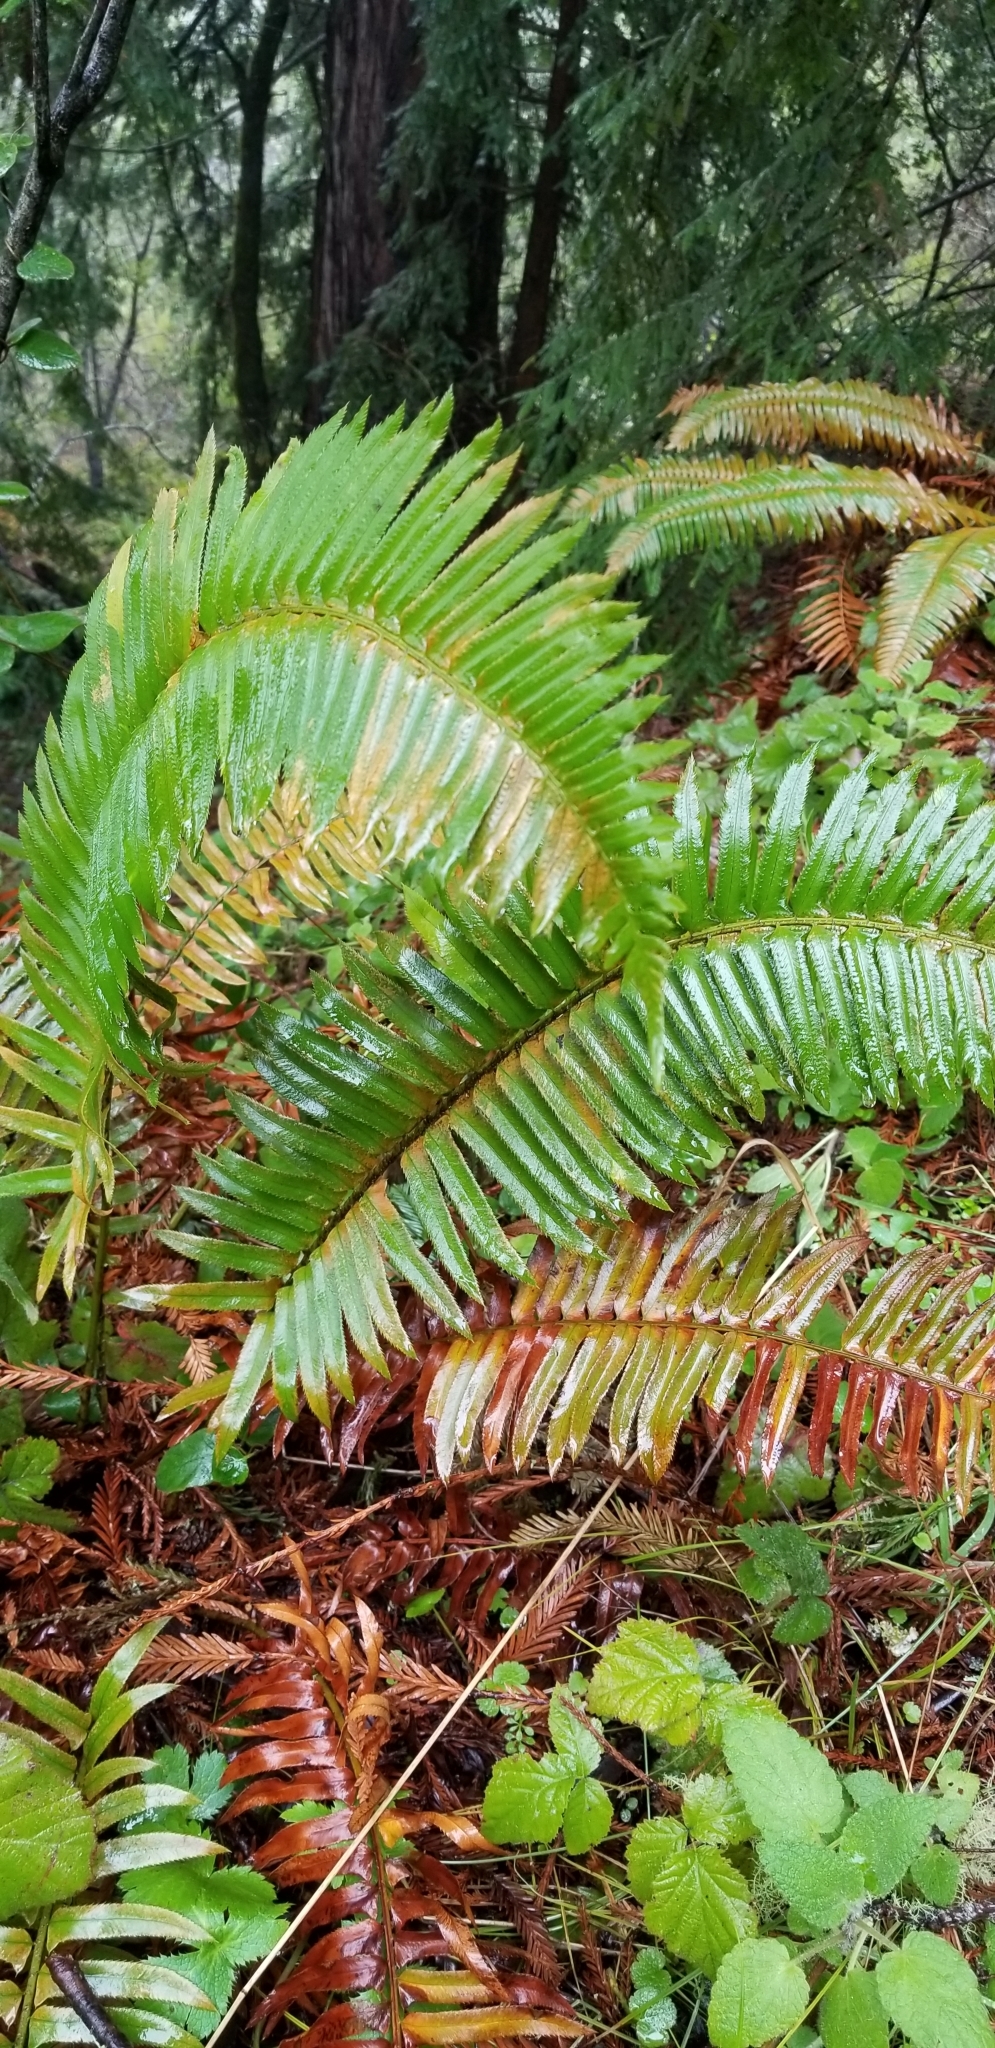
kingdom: Plantae
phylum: Tracheophyta
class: Polypodiopsida
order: Polypodiales
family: Dryopteridaceae
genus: Polystichum
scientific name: Polystichum munitum
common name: Western sword-fern
